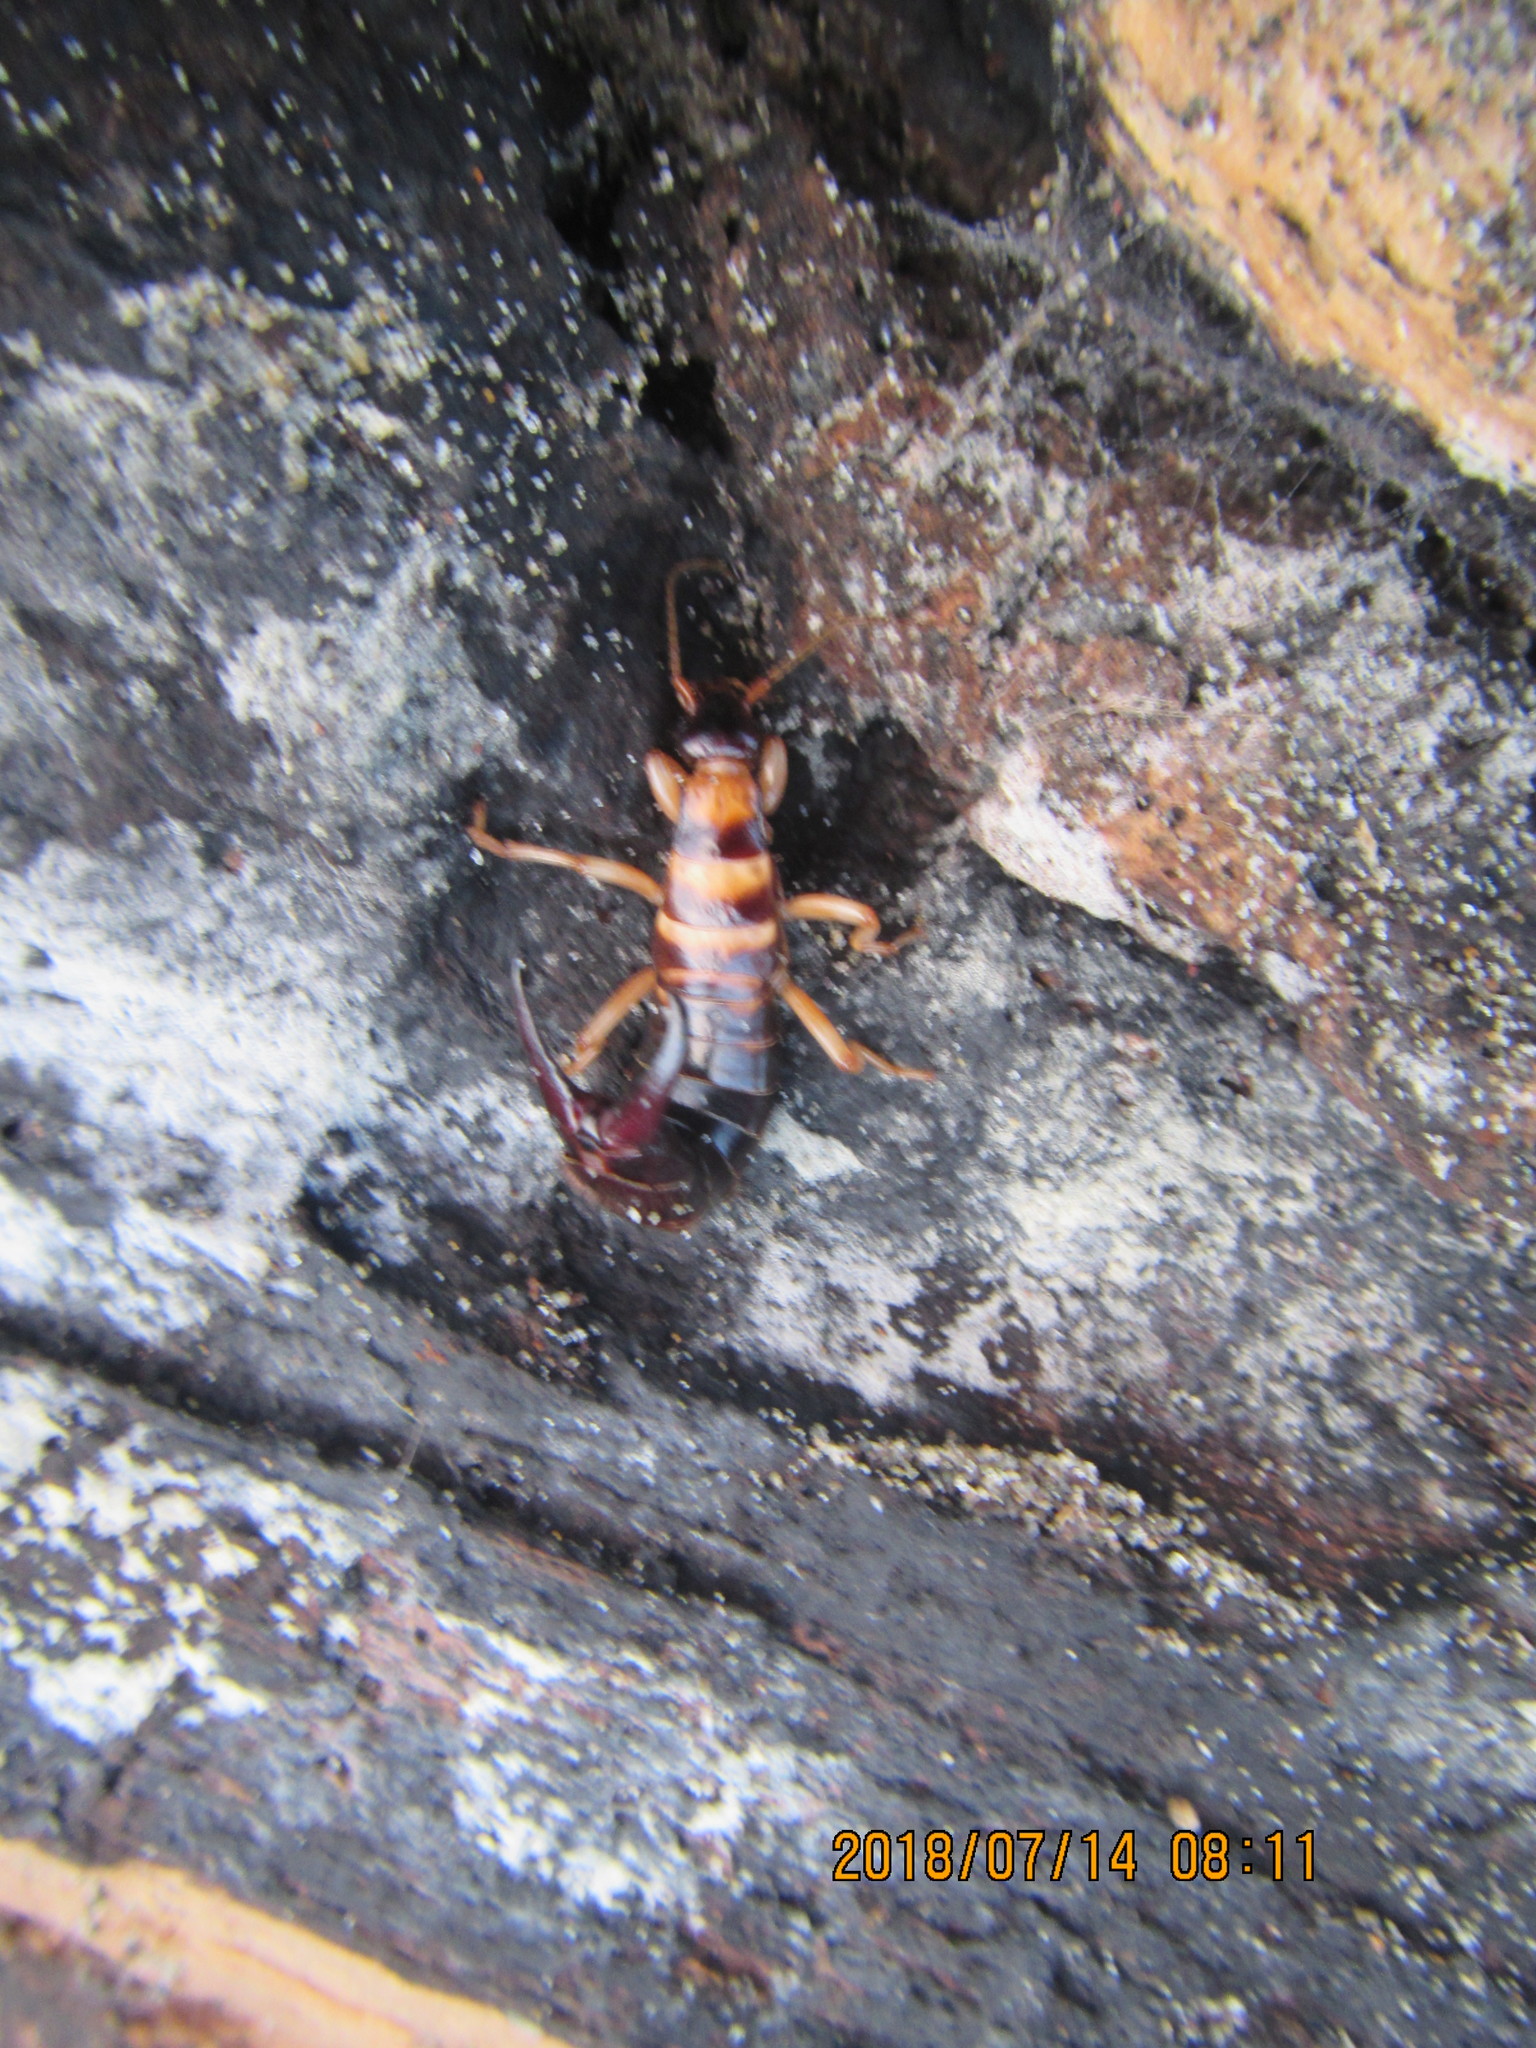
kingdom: Animalia
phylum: Arthropoda
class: Insecta
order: Dermaptera
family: Anisolabididae
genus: Anisolabis
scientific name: Anisolabis littorea
